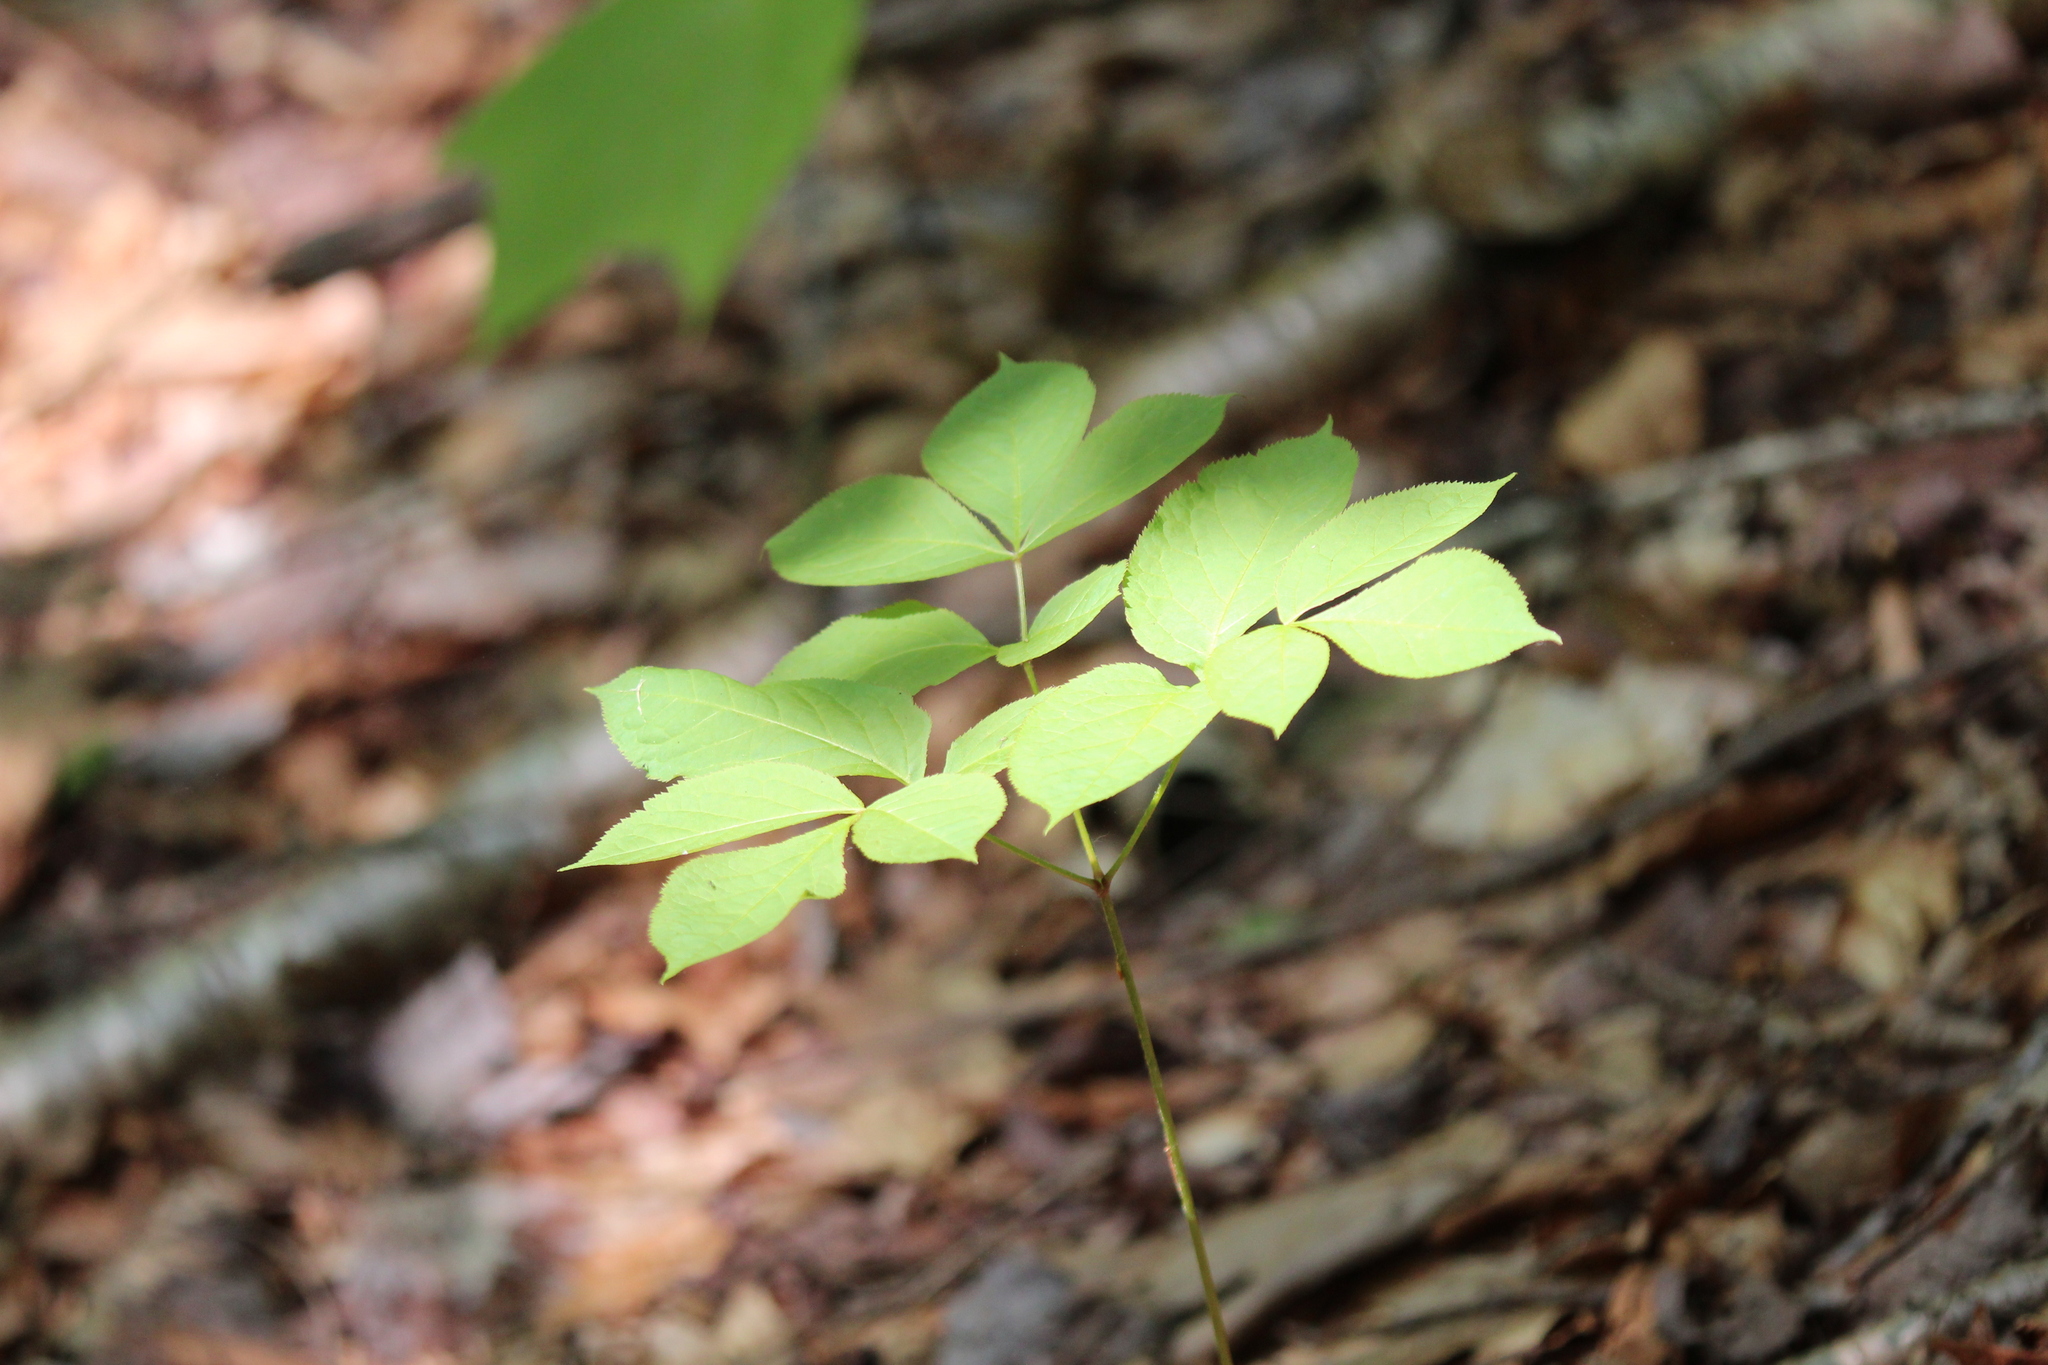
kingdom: Plantae
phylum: Tracheophyta
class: Magnoliopsida
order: Apiales
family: Araliaceae
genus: Aralia
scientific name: Aralia nudicaulis
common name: Wild sarsaparilla
